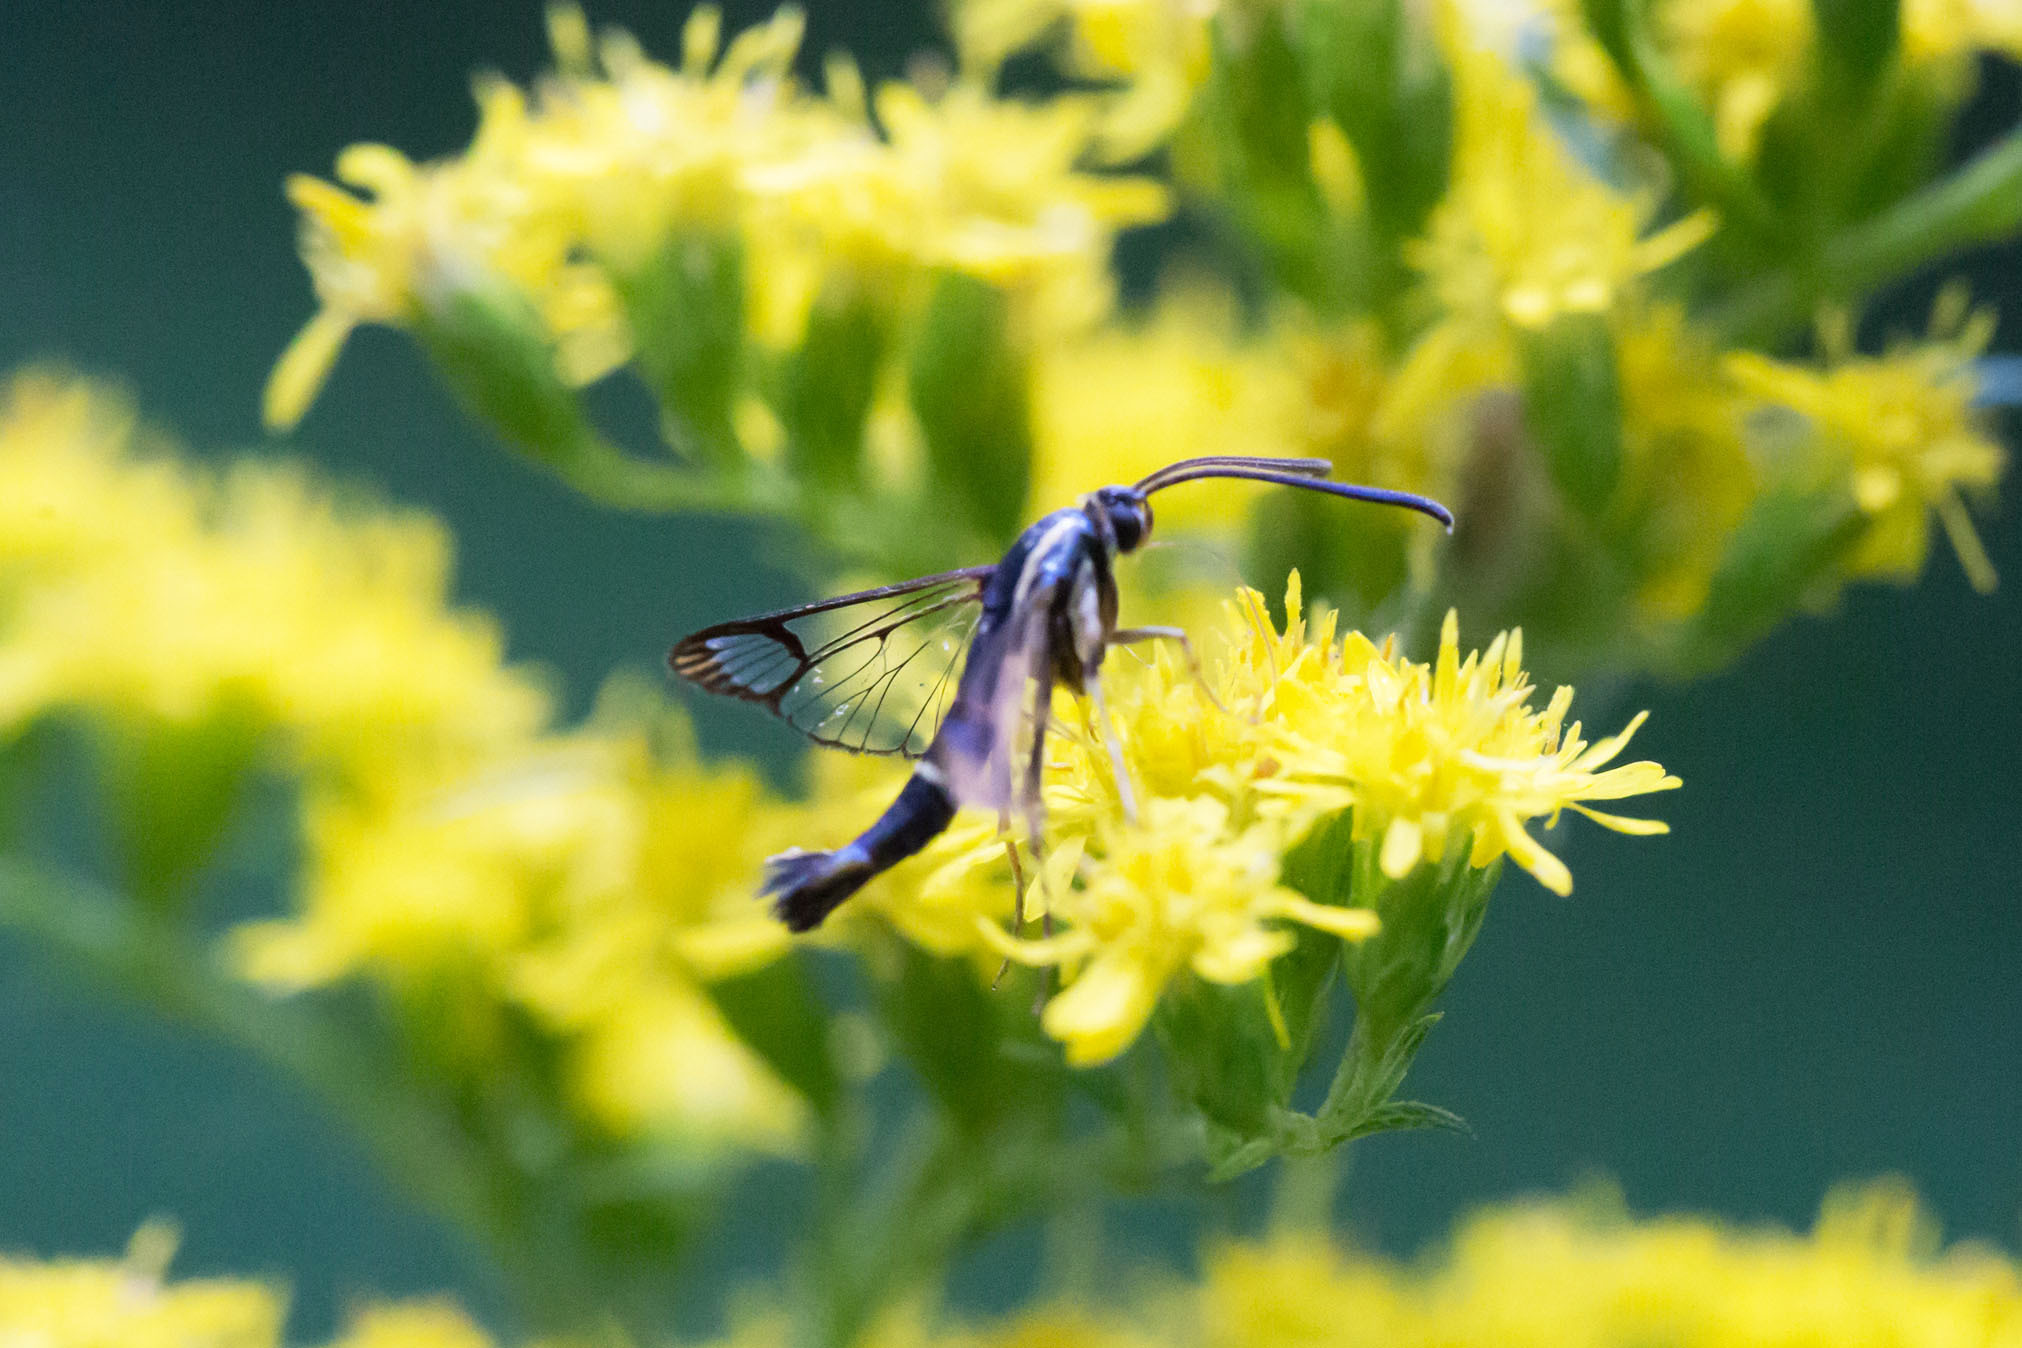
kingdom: Animalia
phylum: Arthropoda
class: Insecta
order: Lepidoptera
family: Sesiidae
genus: Synanthedon
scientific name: Synanthedon scitula
